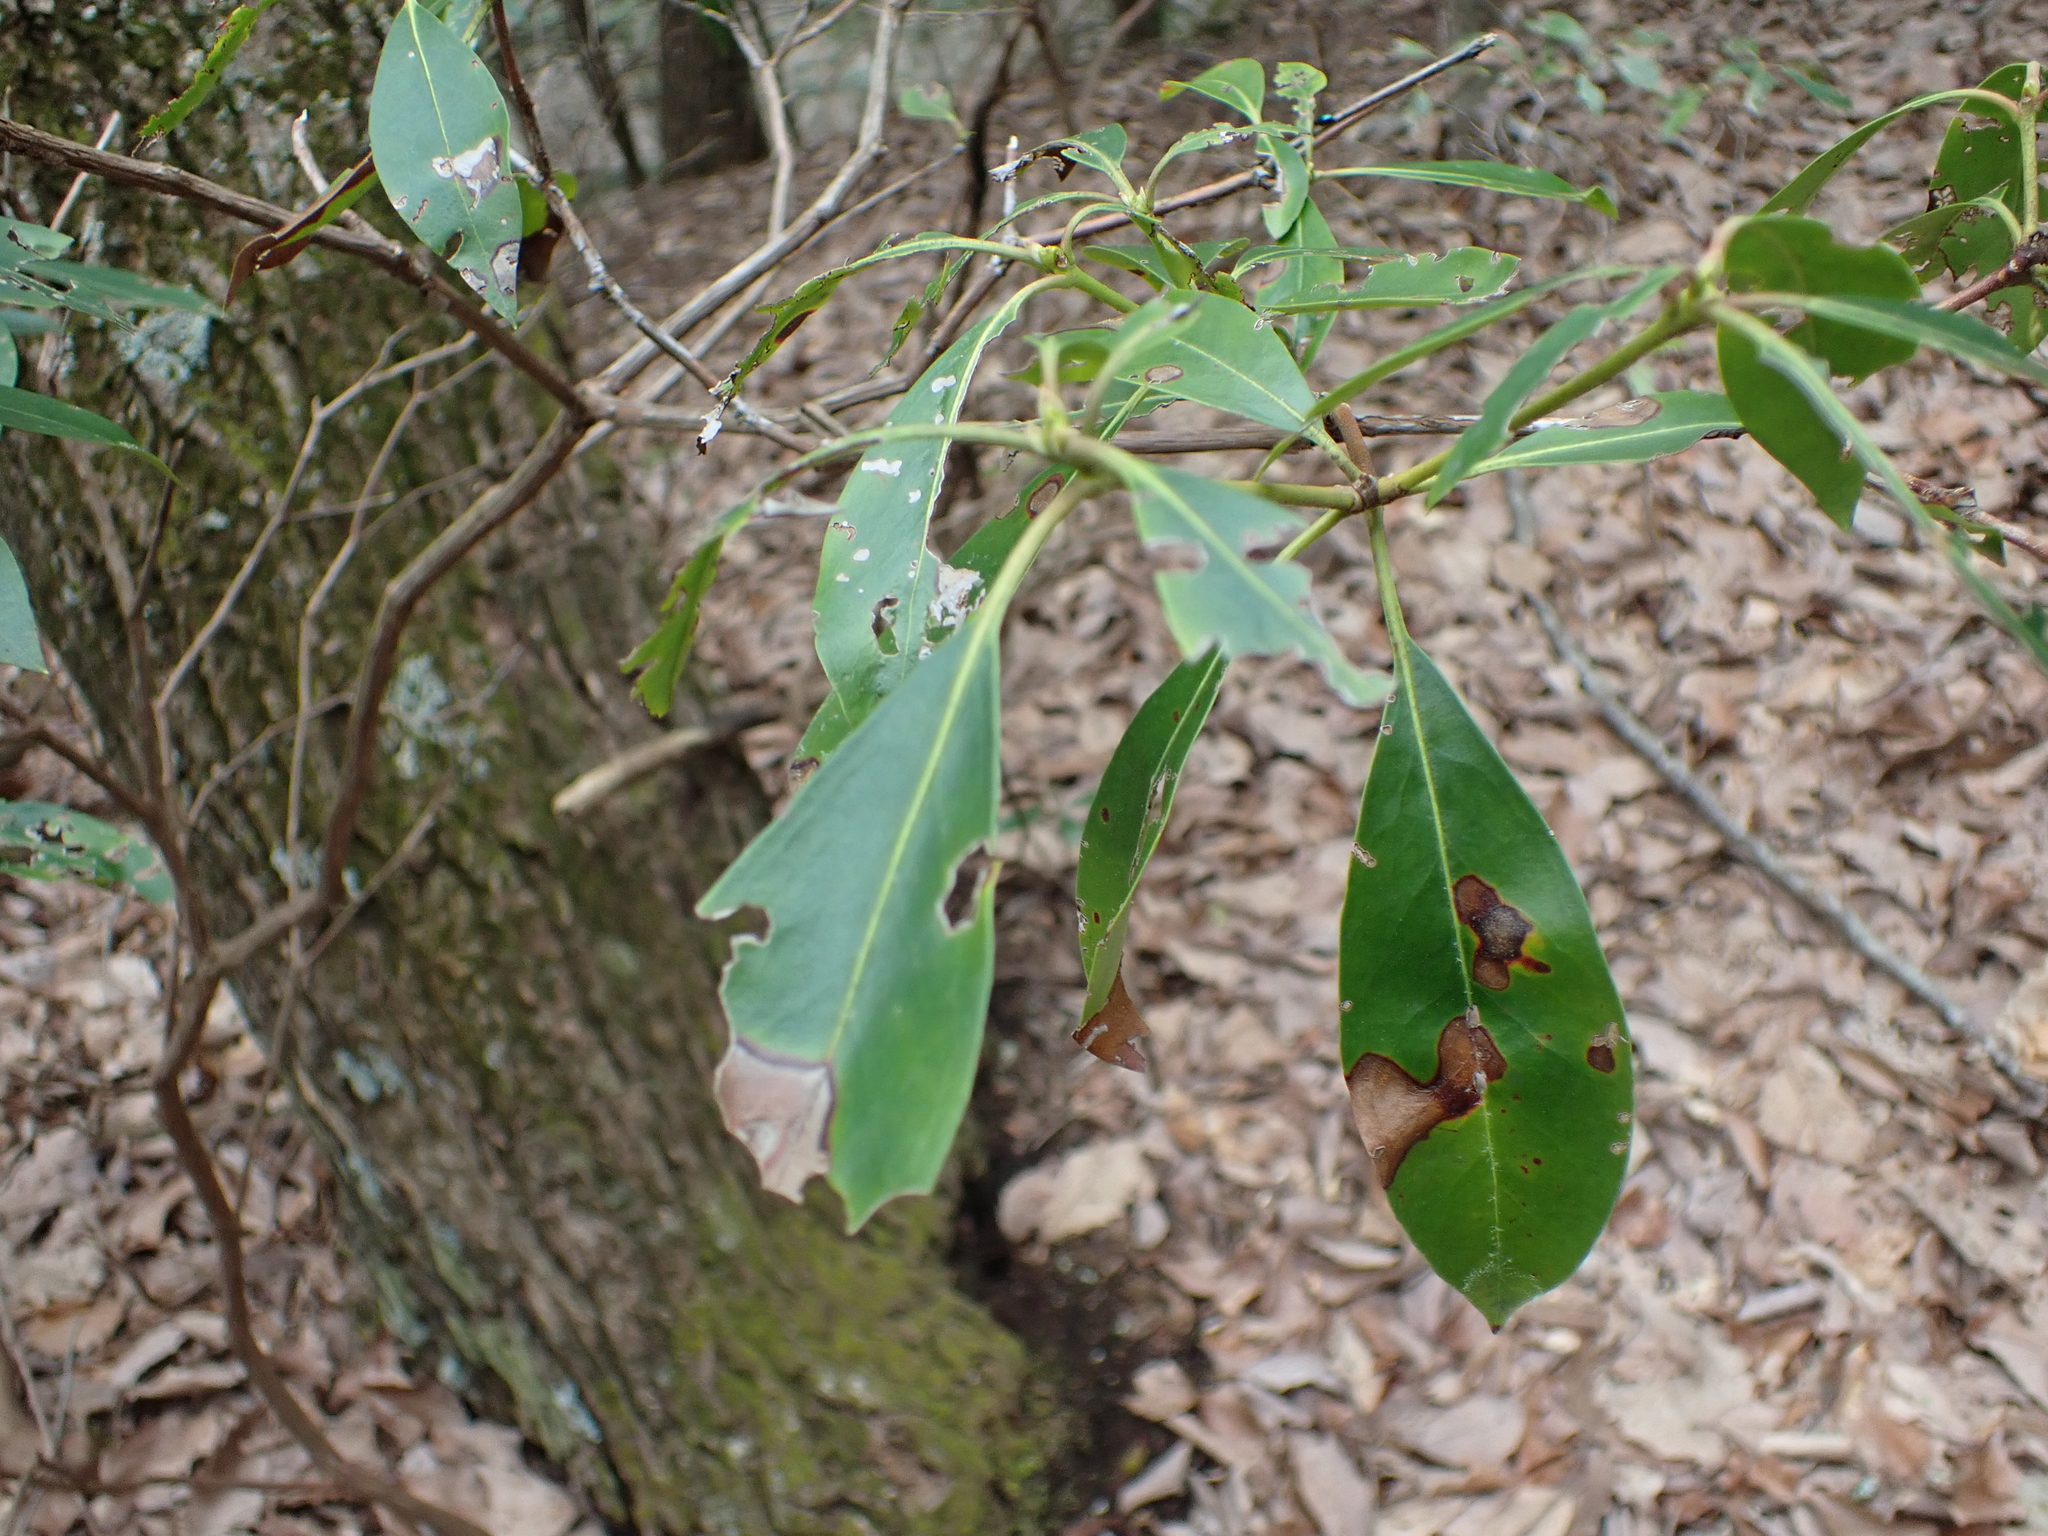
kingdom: Plantae
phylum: Tracheophyta
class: Magnoliopsida
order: Ericales
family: Ericaceae
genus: Kalmia
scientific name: Kalmia latifolia
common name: Mountain-laurel
